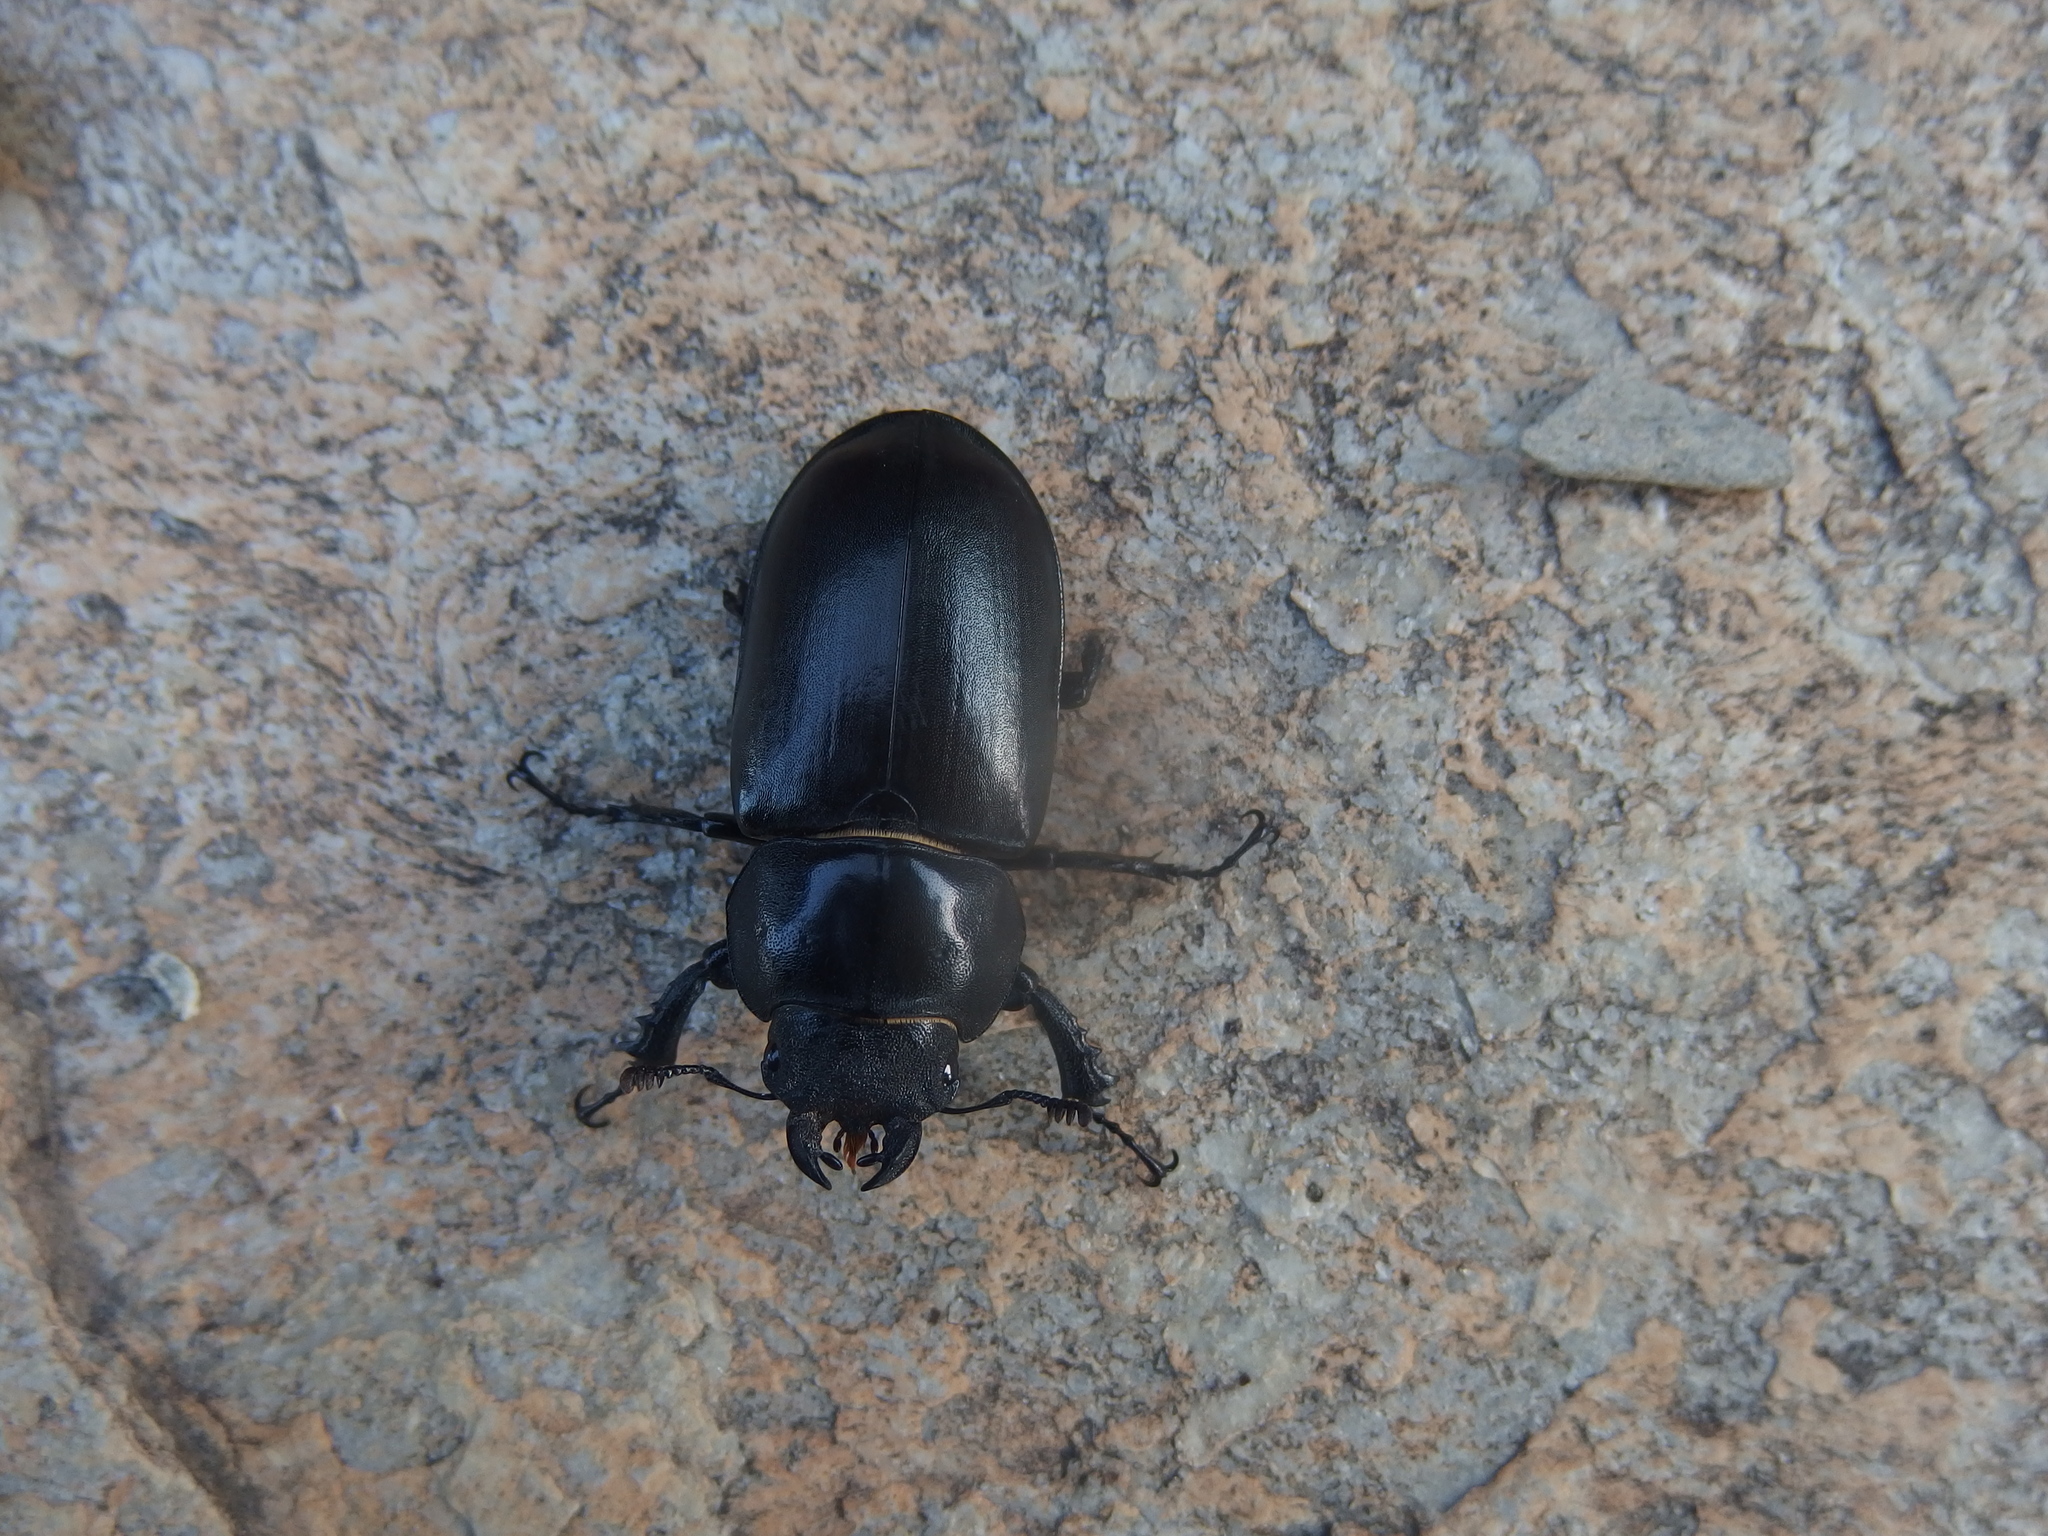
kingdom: Animalia
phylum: Arthropoda
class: Insecta
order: Coleoptera
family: Lucanidae
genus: Lucanus
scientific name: Lucanus cervus
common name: Stag beetle
